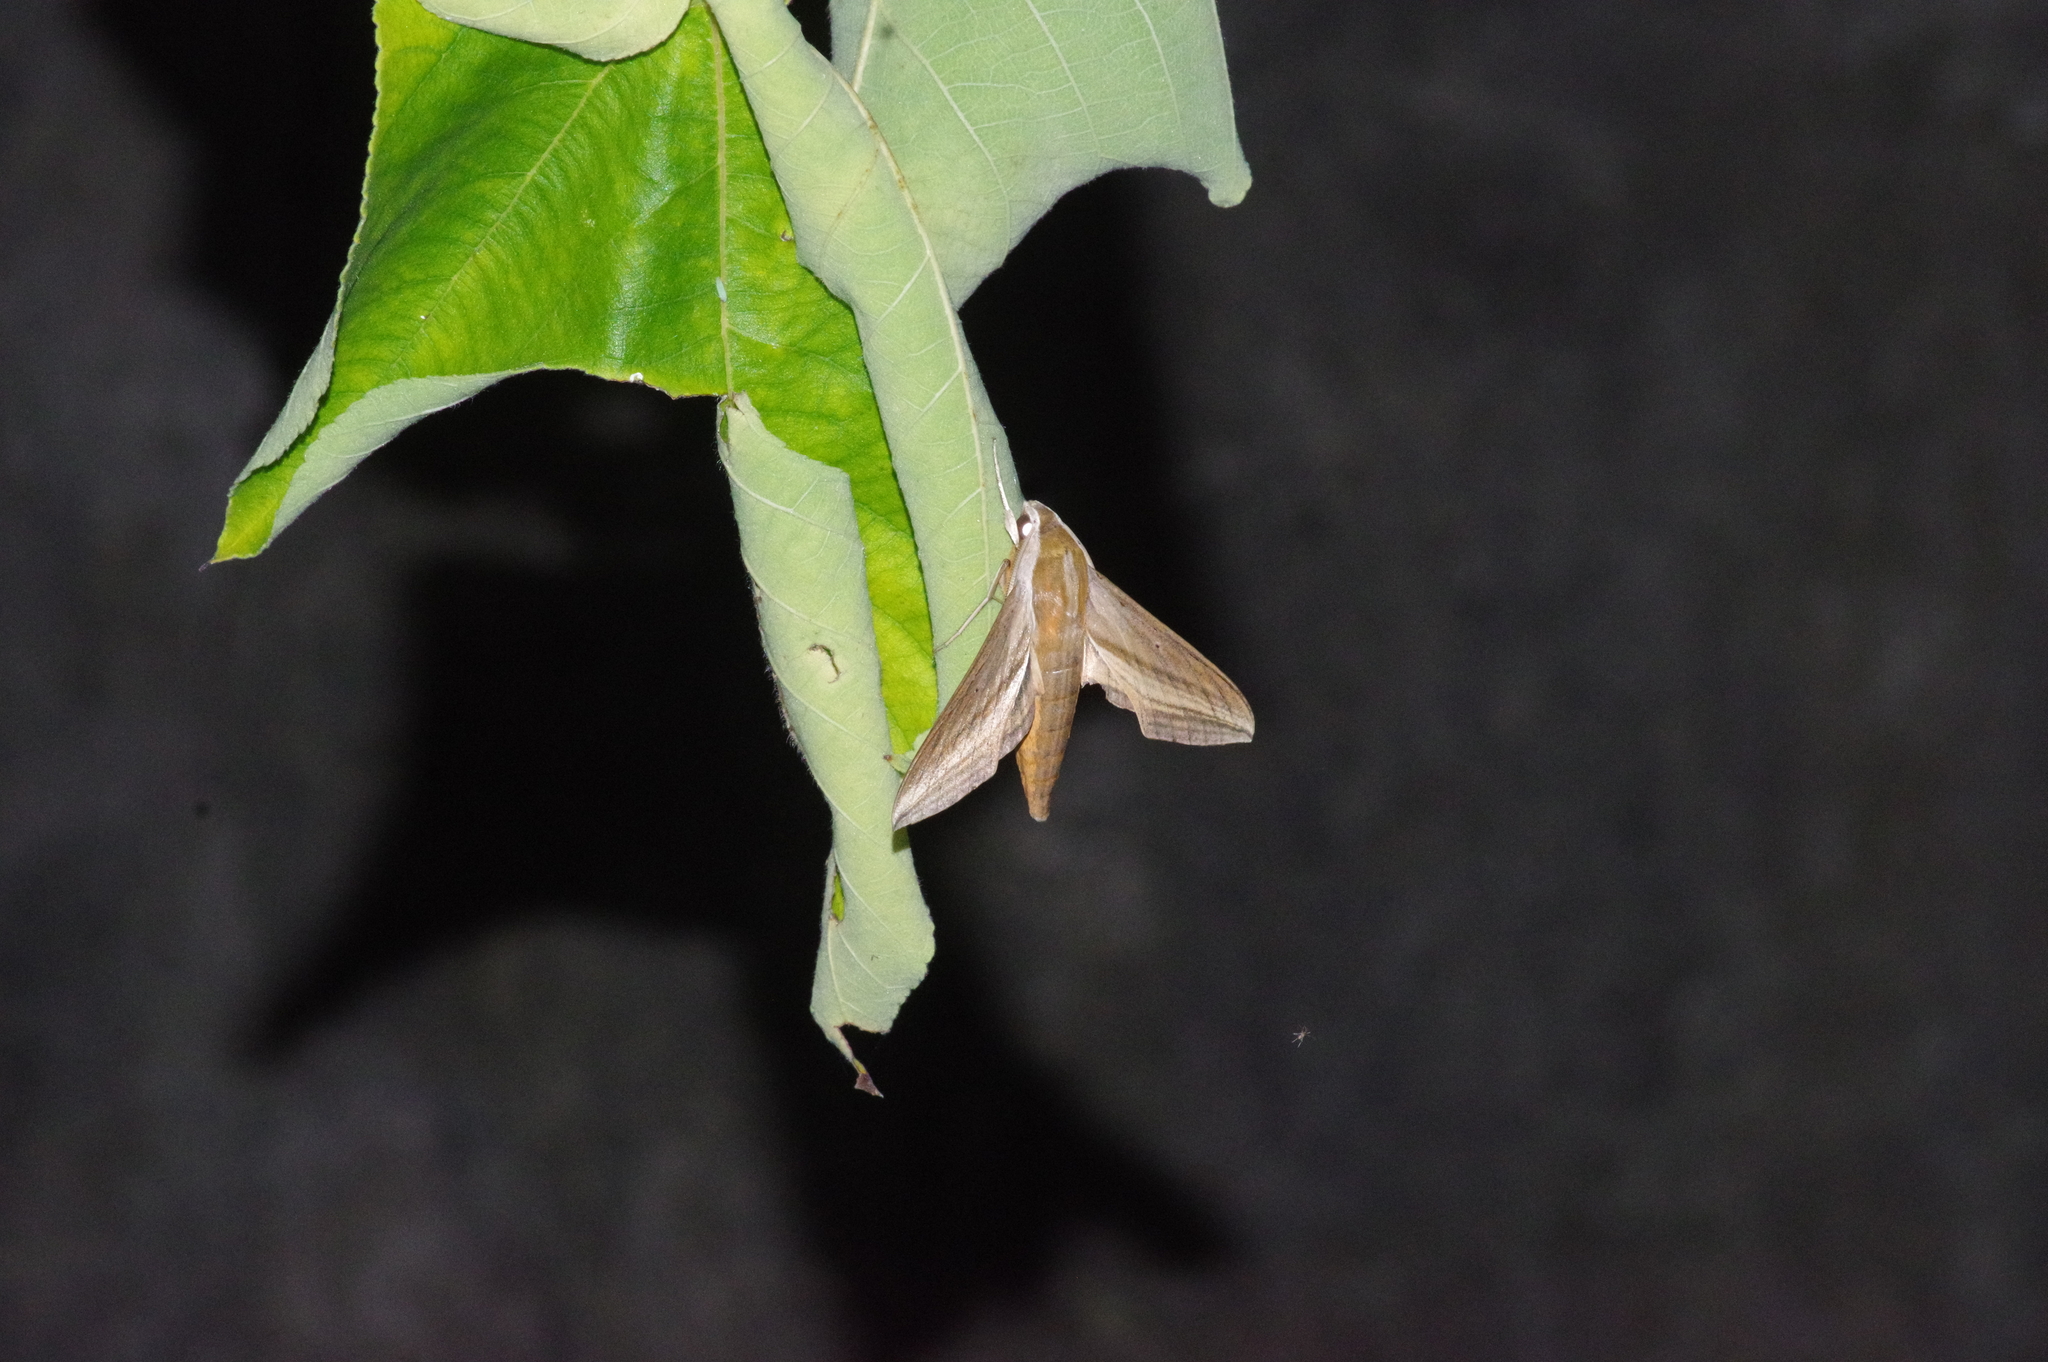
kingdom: Animalia
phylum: Arthropoda
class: Insecta
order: Lepidoptera
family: Sphingidae
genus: Theretra
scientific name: Theretra japonica
